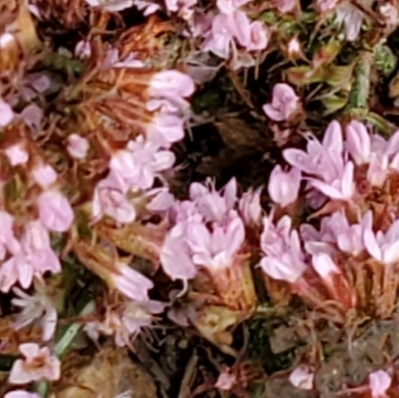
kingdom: Plantae
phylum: Tracheophyta
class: Magnoliopsida
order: Caryophyllales
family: Polygonaceae
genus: Chorizanthe
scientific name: Chorizanthe staticoides
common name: Turkish rugging
